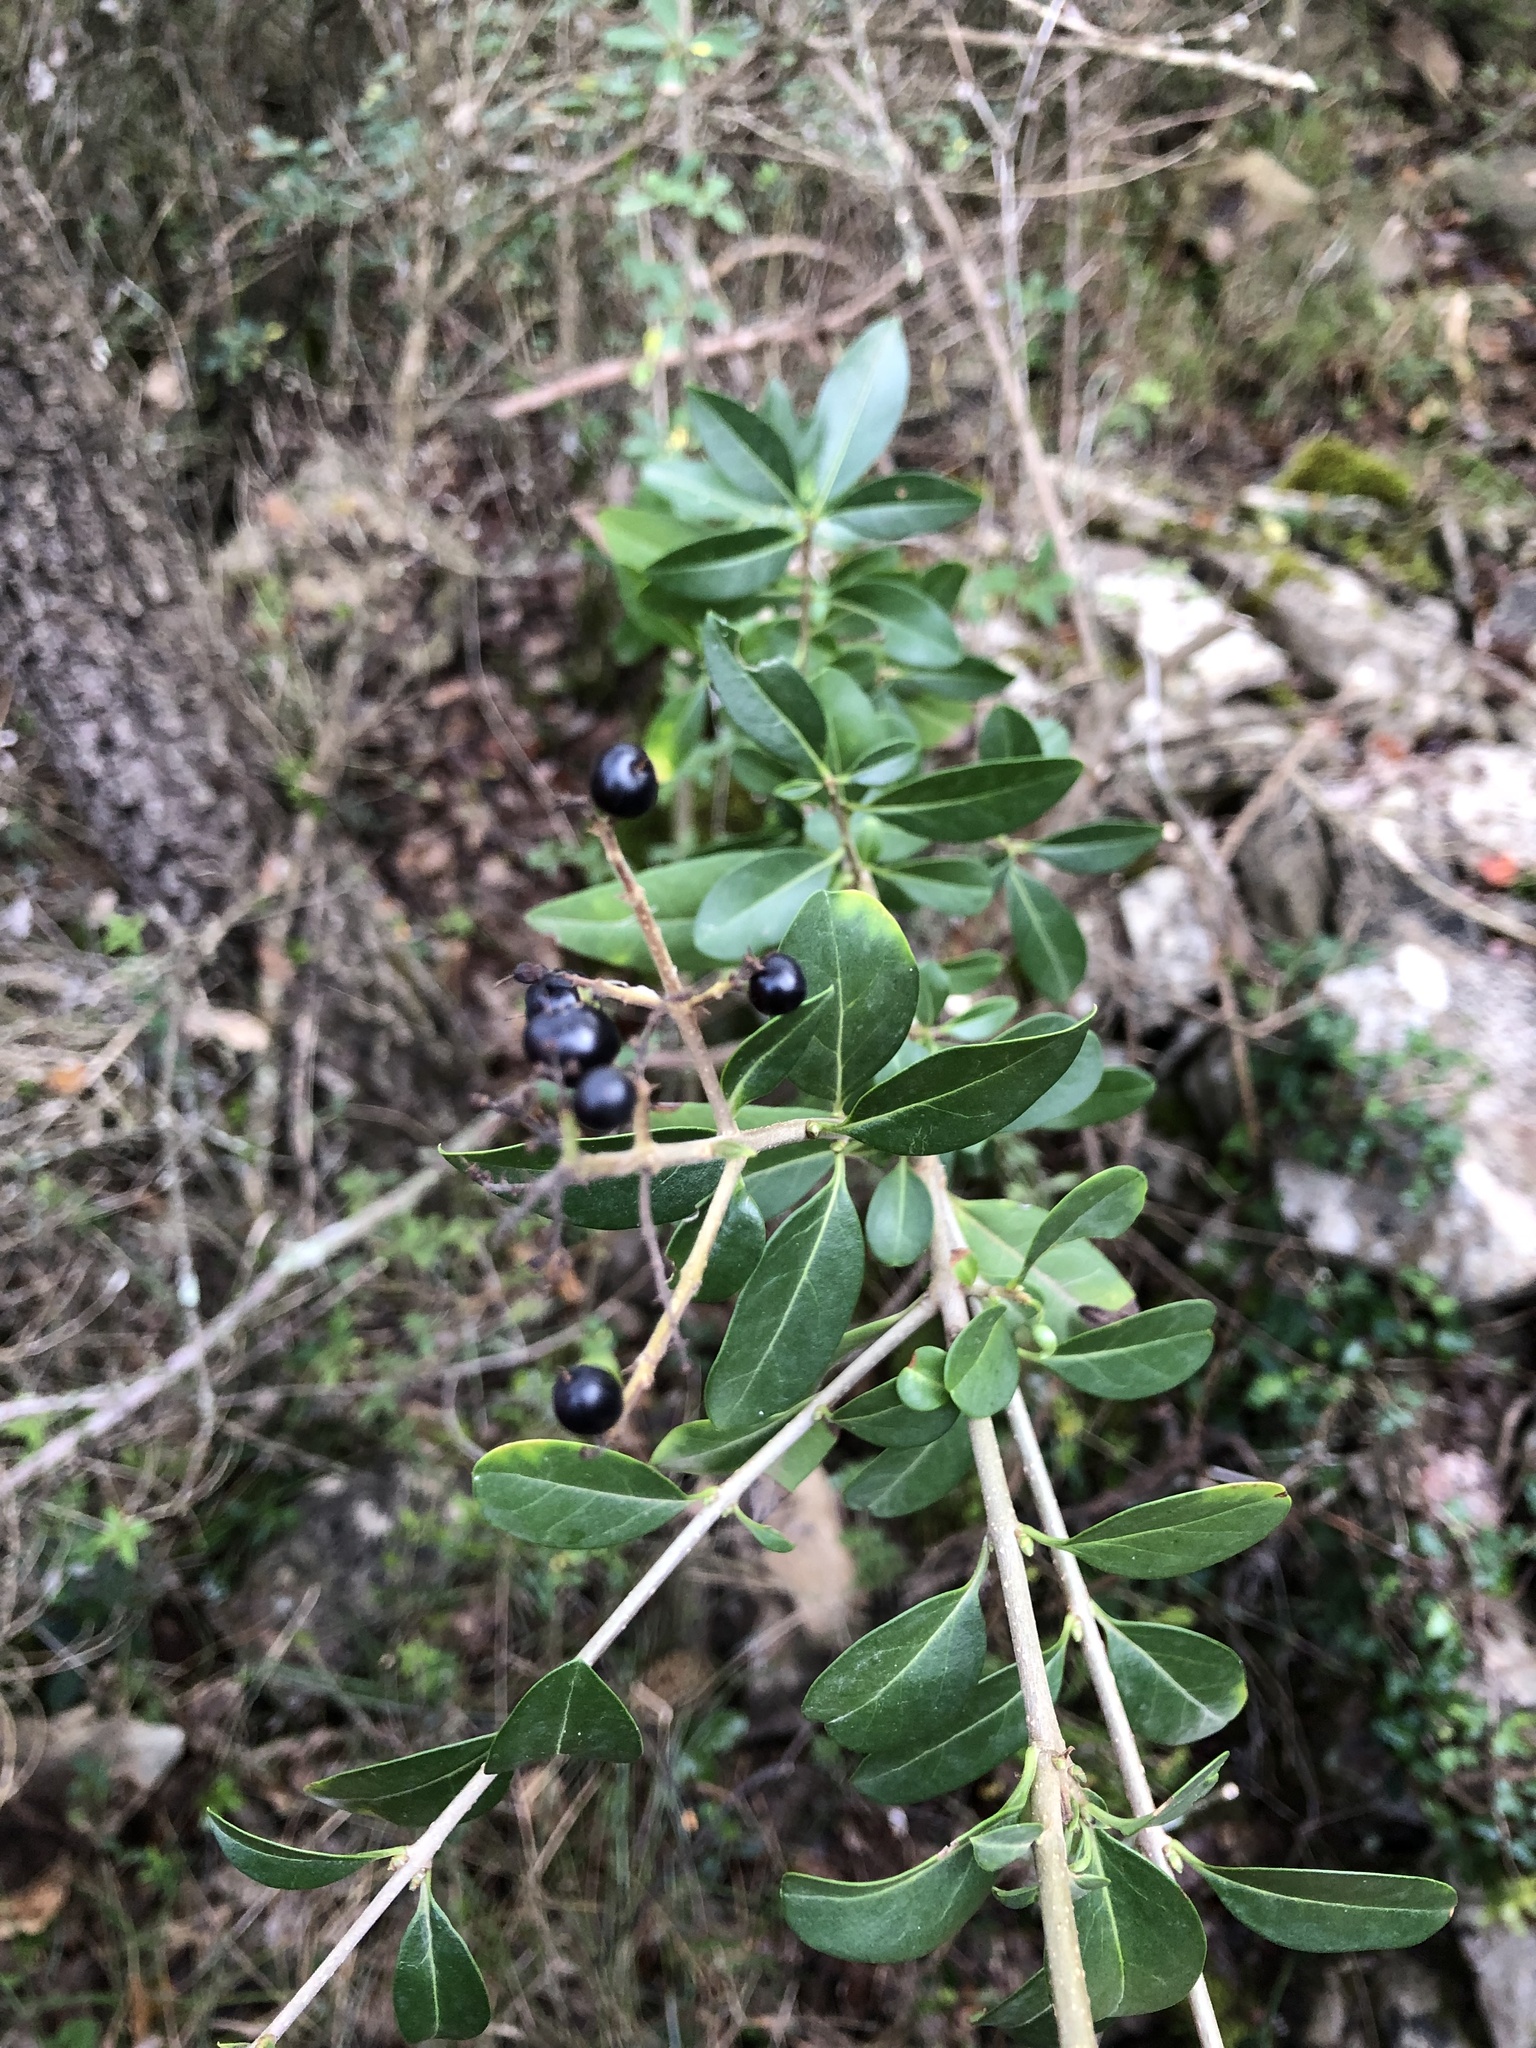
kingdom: Plantae
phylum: Tracheophyta
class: Magnoliopsida
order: Lamiales
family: Oleaceae
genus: Ligustrum
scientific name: Ligustrum vulgare
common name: Wild privet
